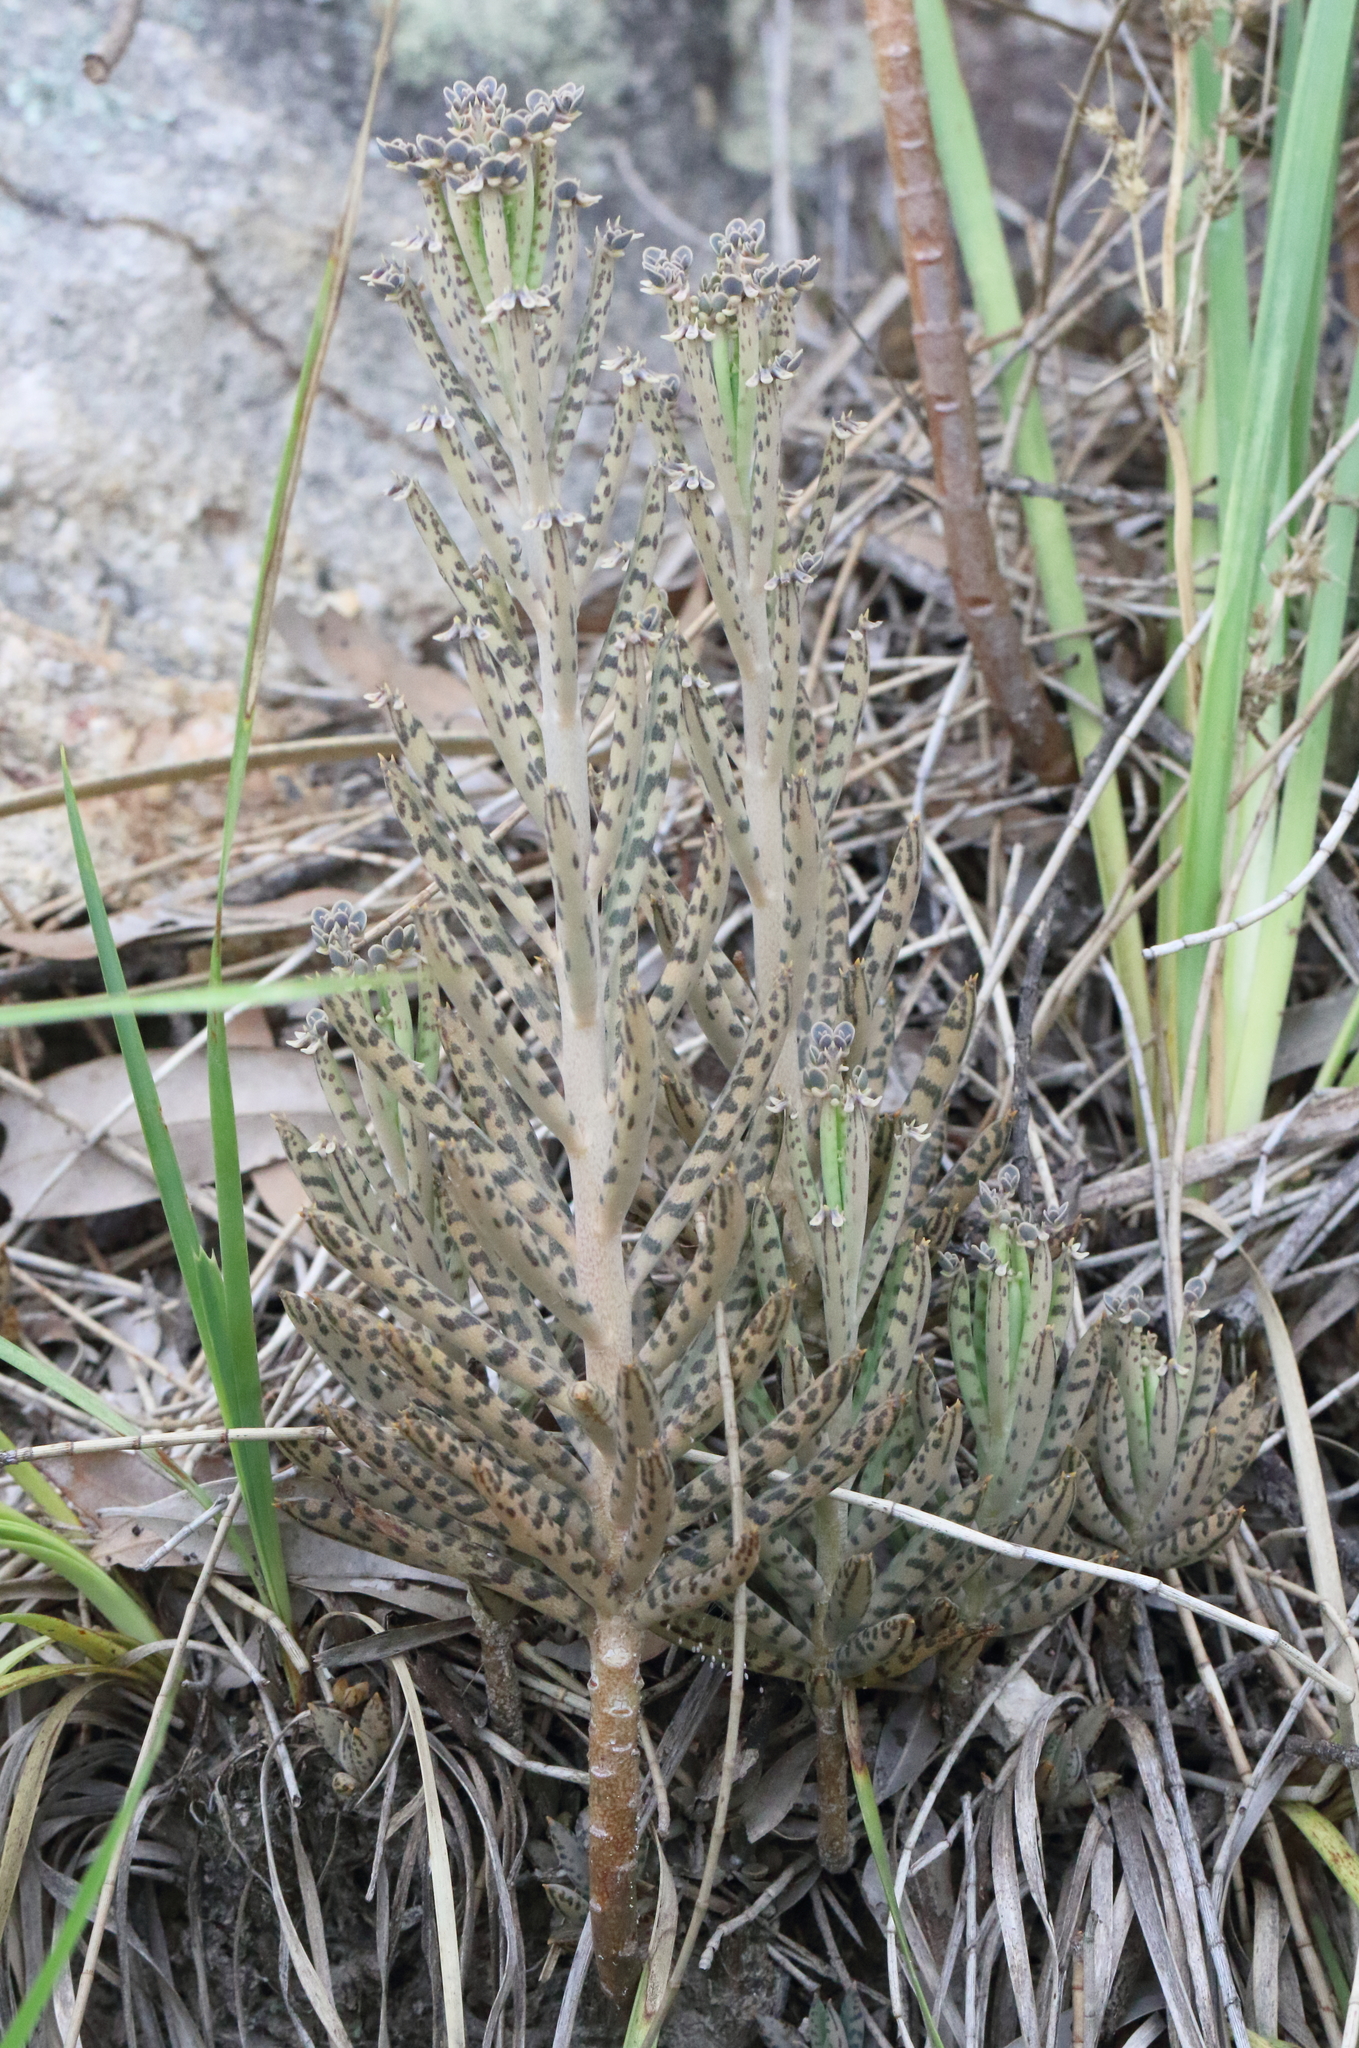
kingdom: Plantae
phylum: Tracheophyta
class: Magnoliopsida
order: Saxifragales
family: Crassulaceae
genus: Kalanchoe
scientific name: Kalanchoe delagoensis
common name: Chandelier plant
